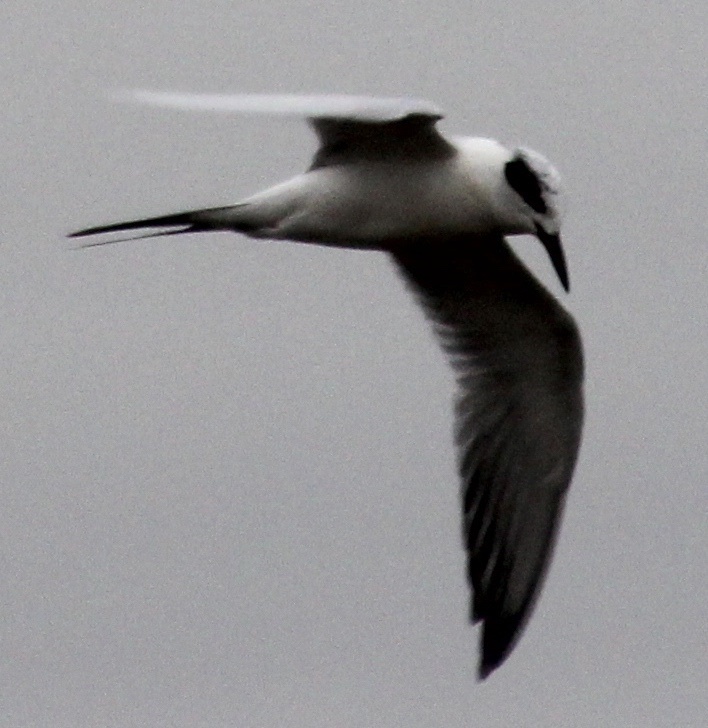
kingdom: Animalia
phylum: Chordata
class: Aves
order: Charadriiformes
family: Laridae
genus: Sterna
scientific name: Sterna forsteri
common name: Forster's tern
